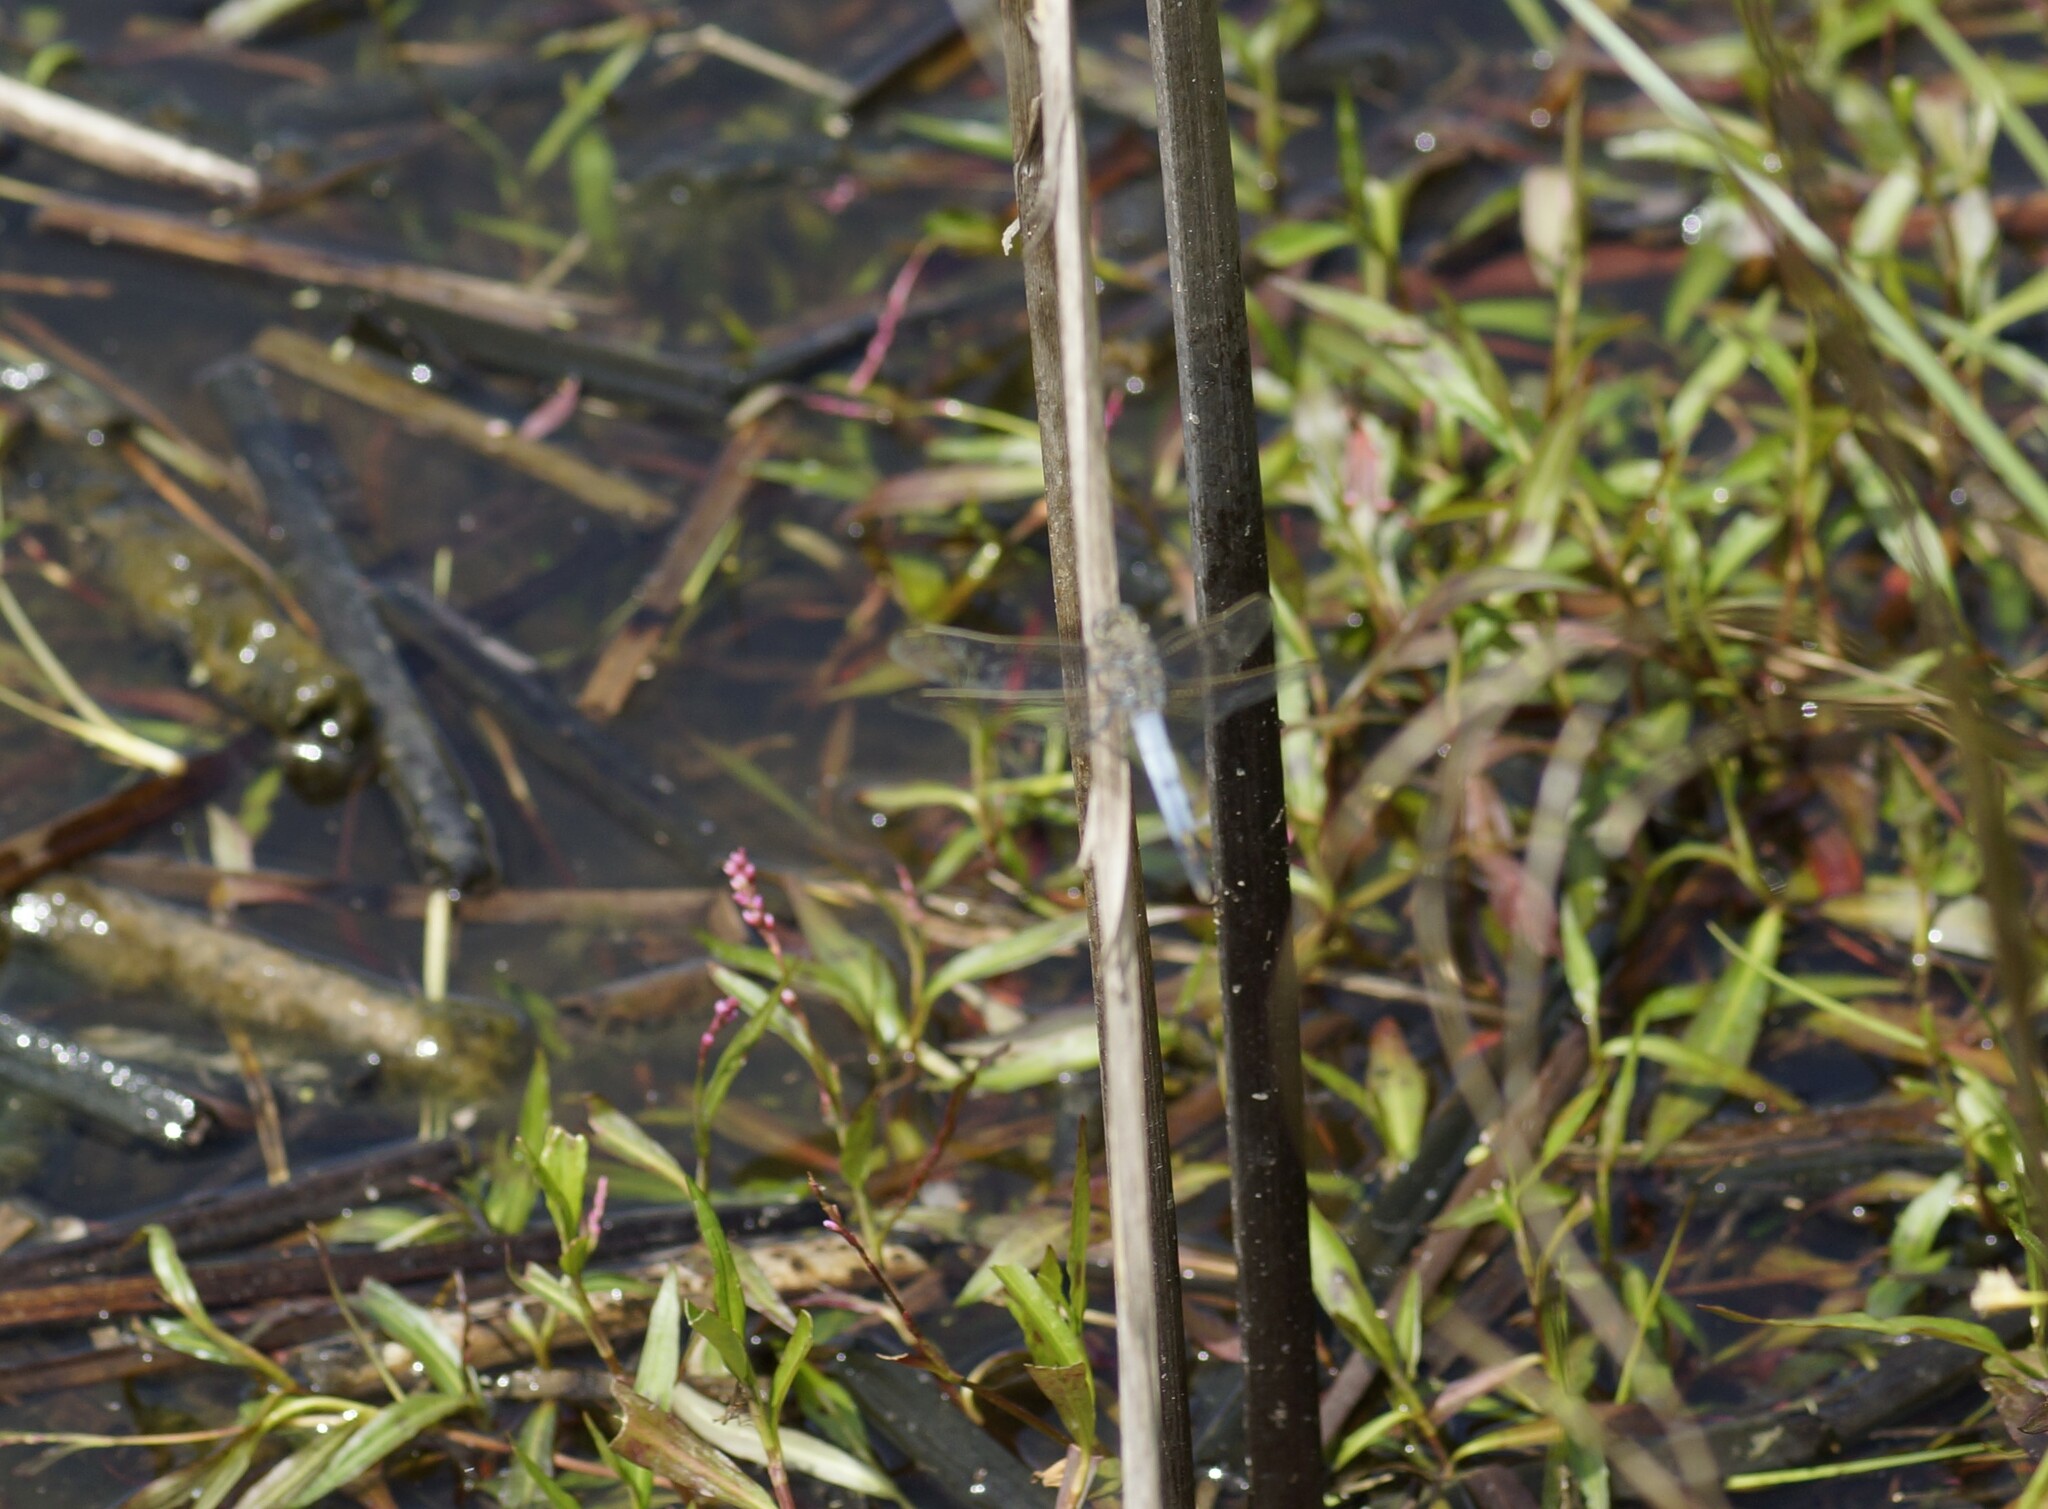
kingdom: Animalia
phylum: Arthropoda
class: Insecta
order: Odonata
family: Libellulidae
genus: Orthetrum
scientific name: Orthetrum caledonicum
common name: Blue skimmer
